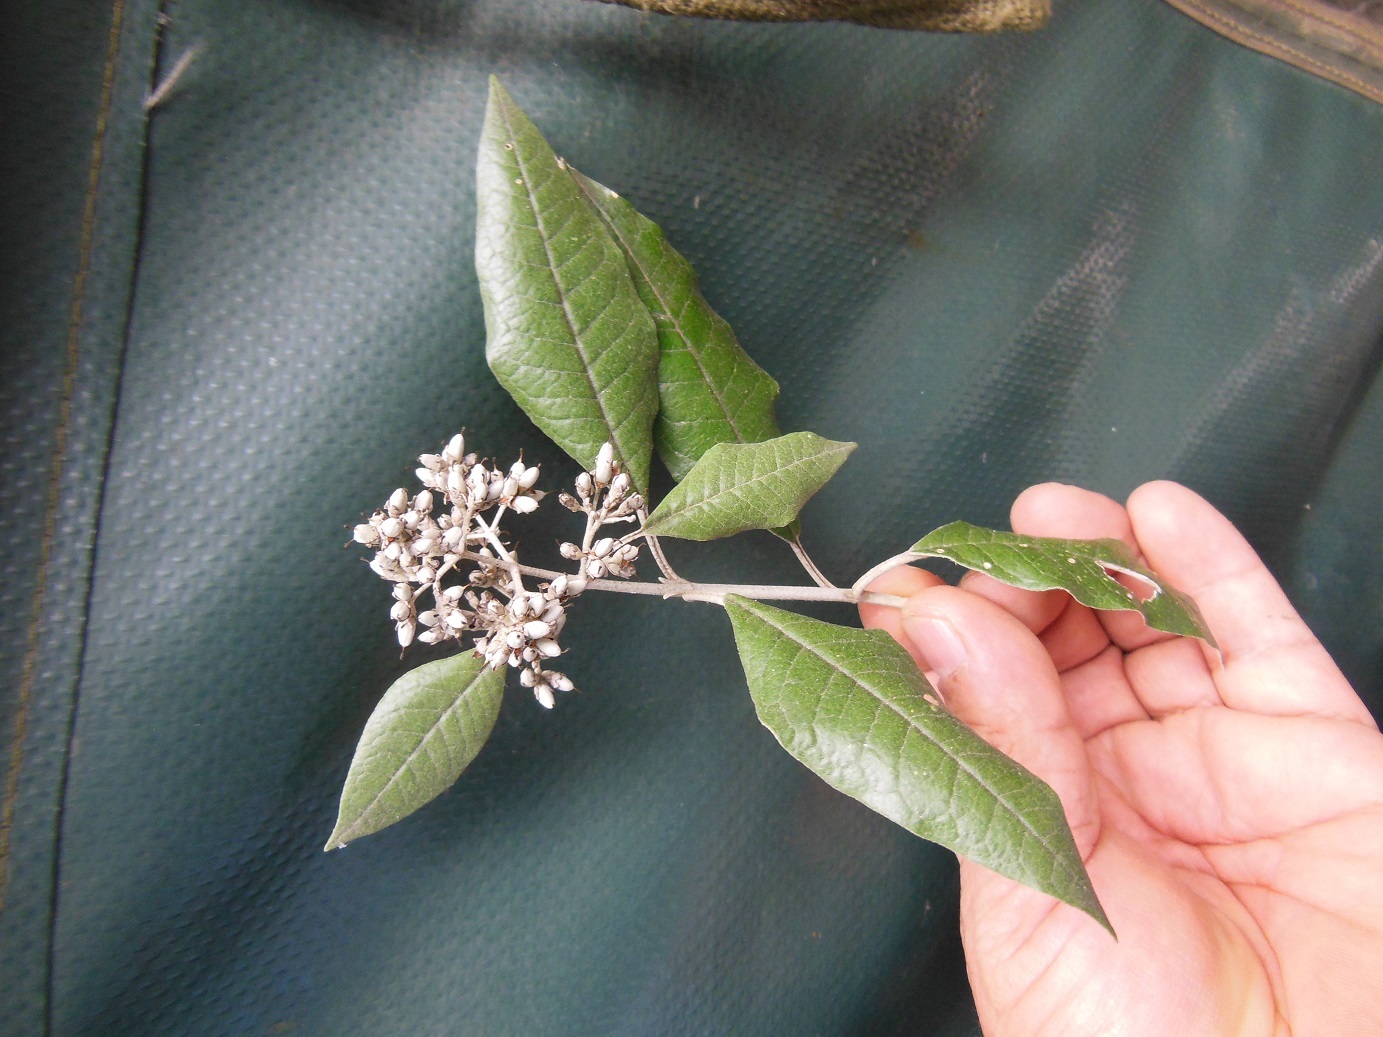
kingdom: Plantae
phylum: Tracheophyta
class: Magnoliopsida
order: Lamiales
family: Scrophulariaceae
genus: Buddleja
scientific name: Buddleja nitida
